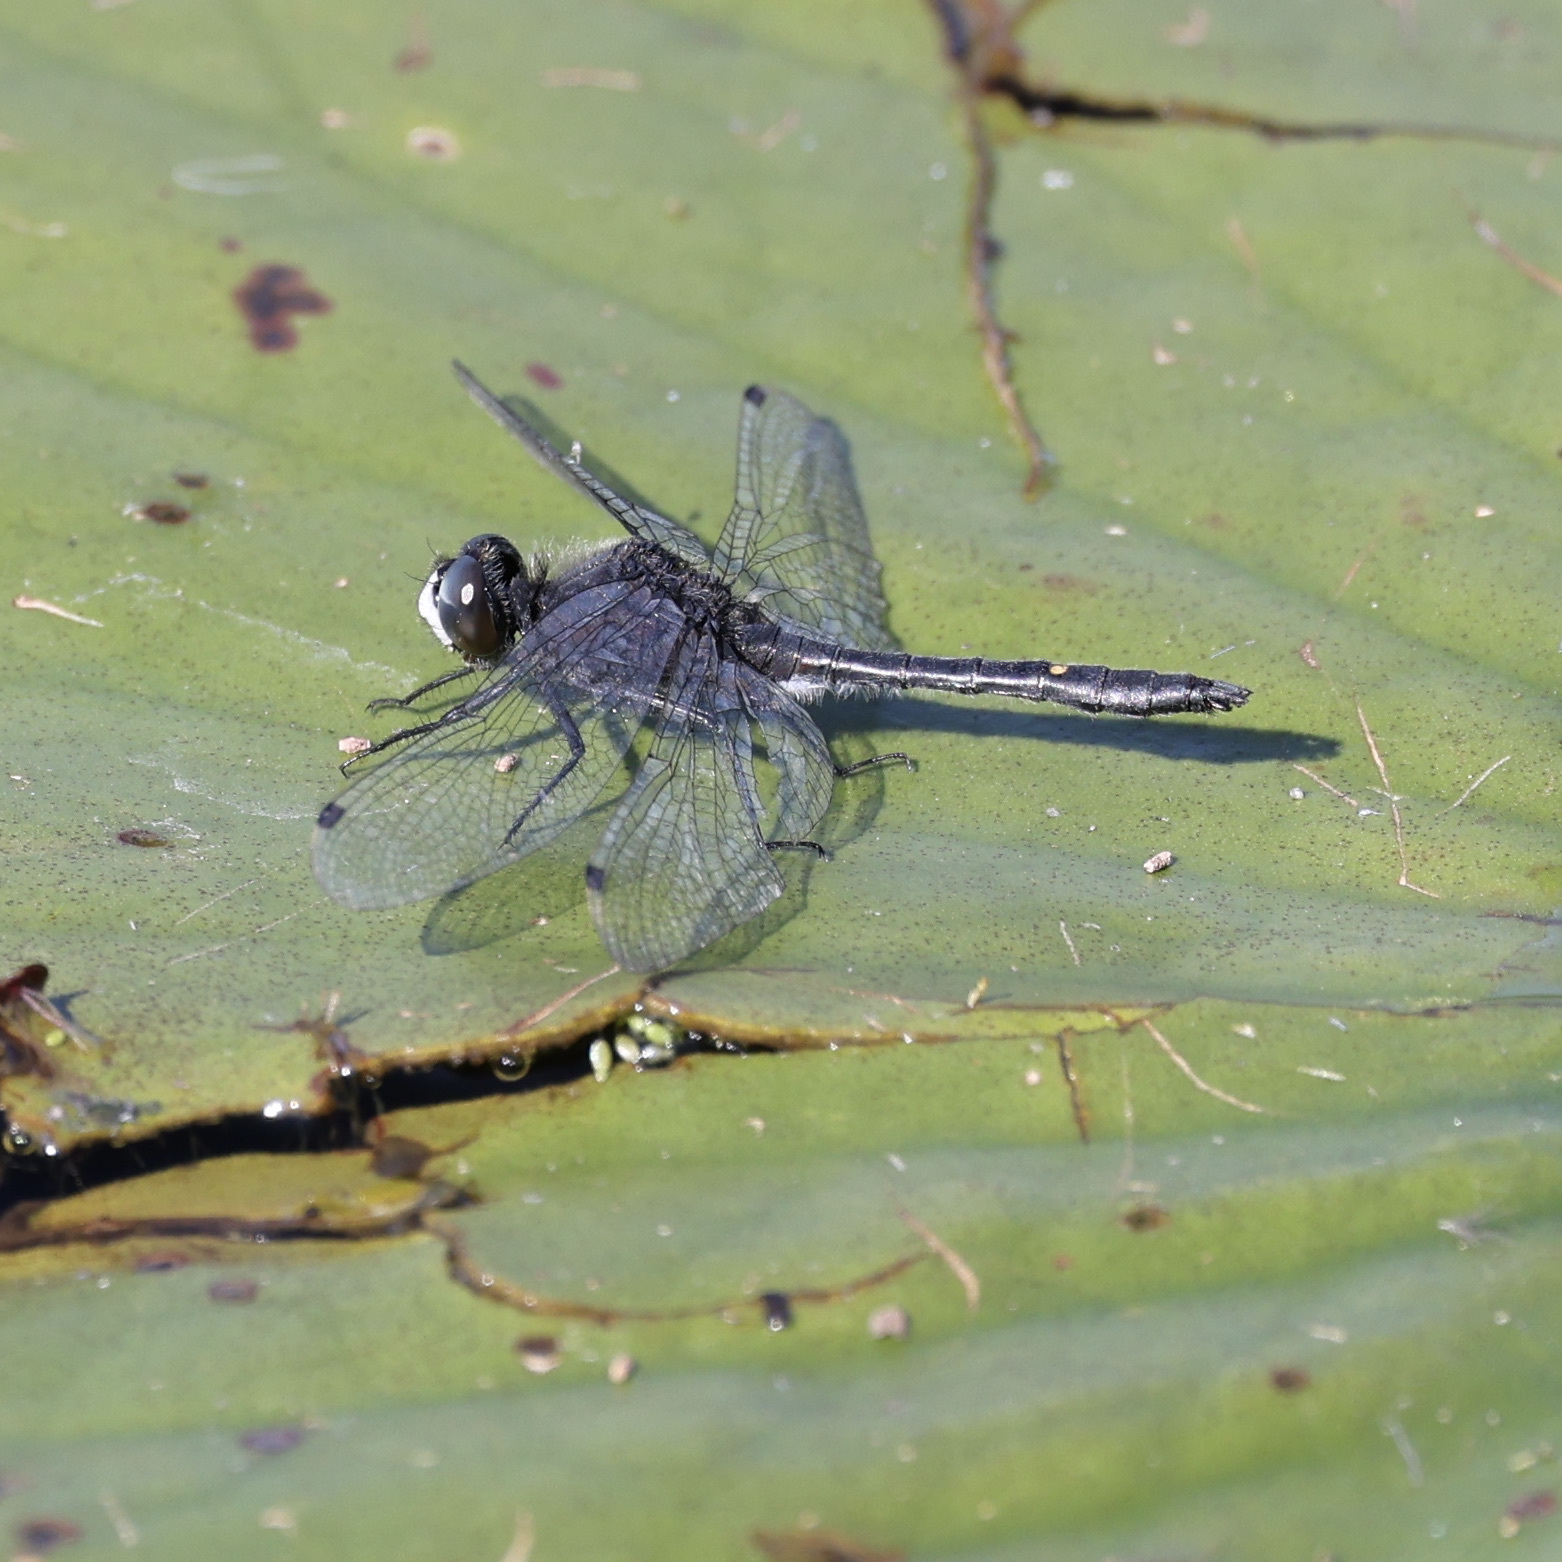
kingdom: Animalia
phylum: Arthropoda
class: Insecta
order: Odonata
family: Libellulidae
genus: Leucorrhinia
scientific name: Leucorrhinia intacta
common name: Dot-tailed whiteface
